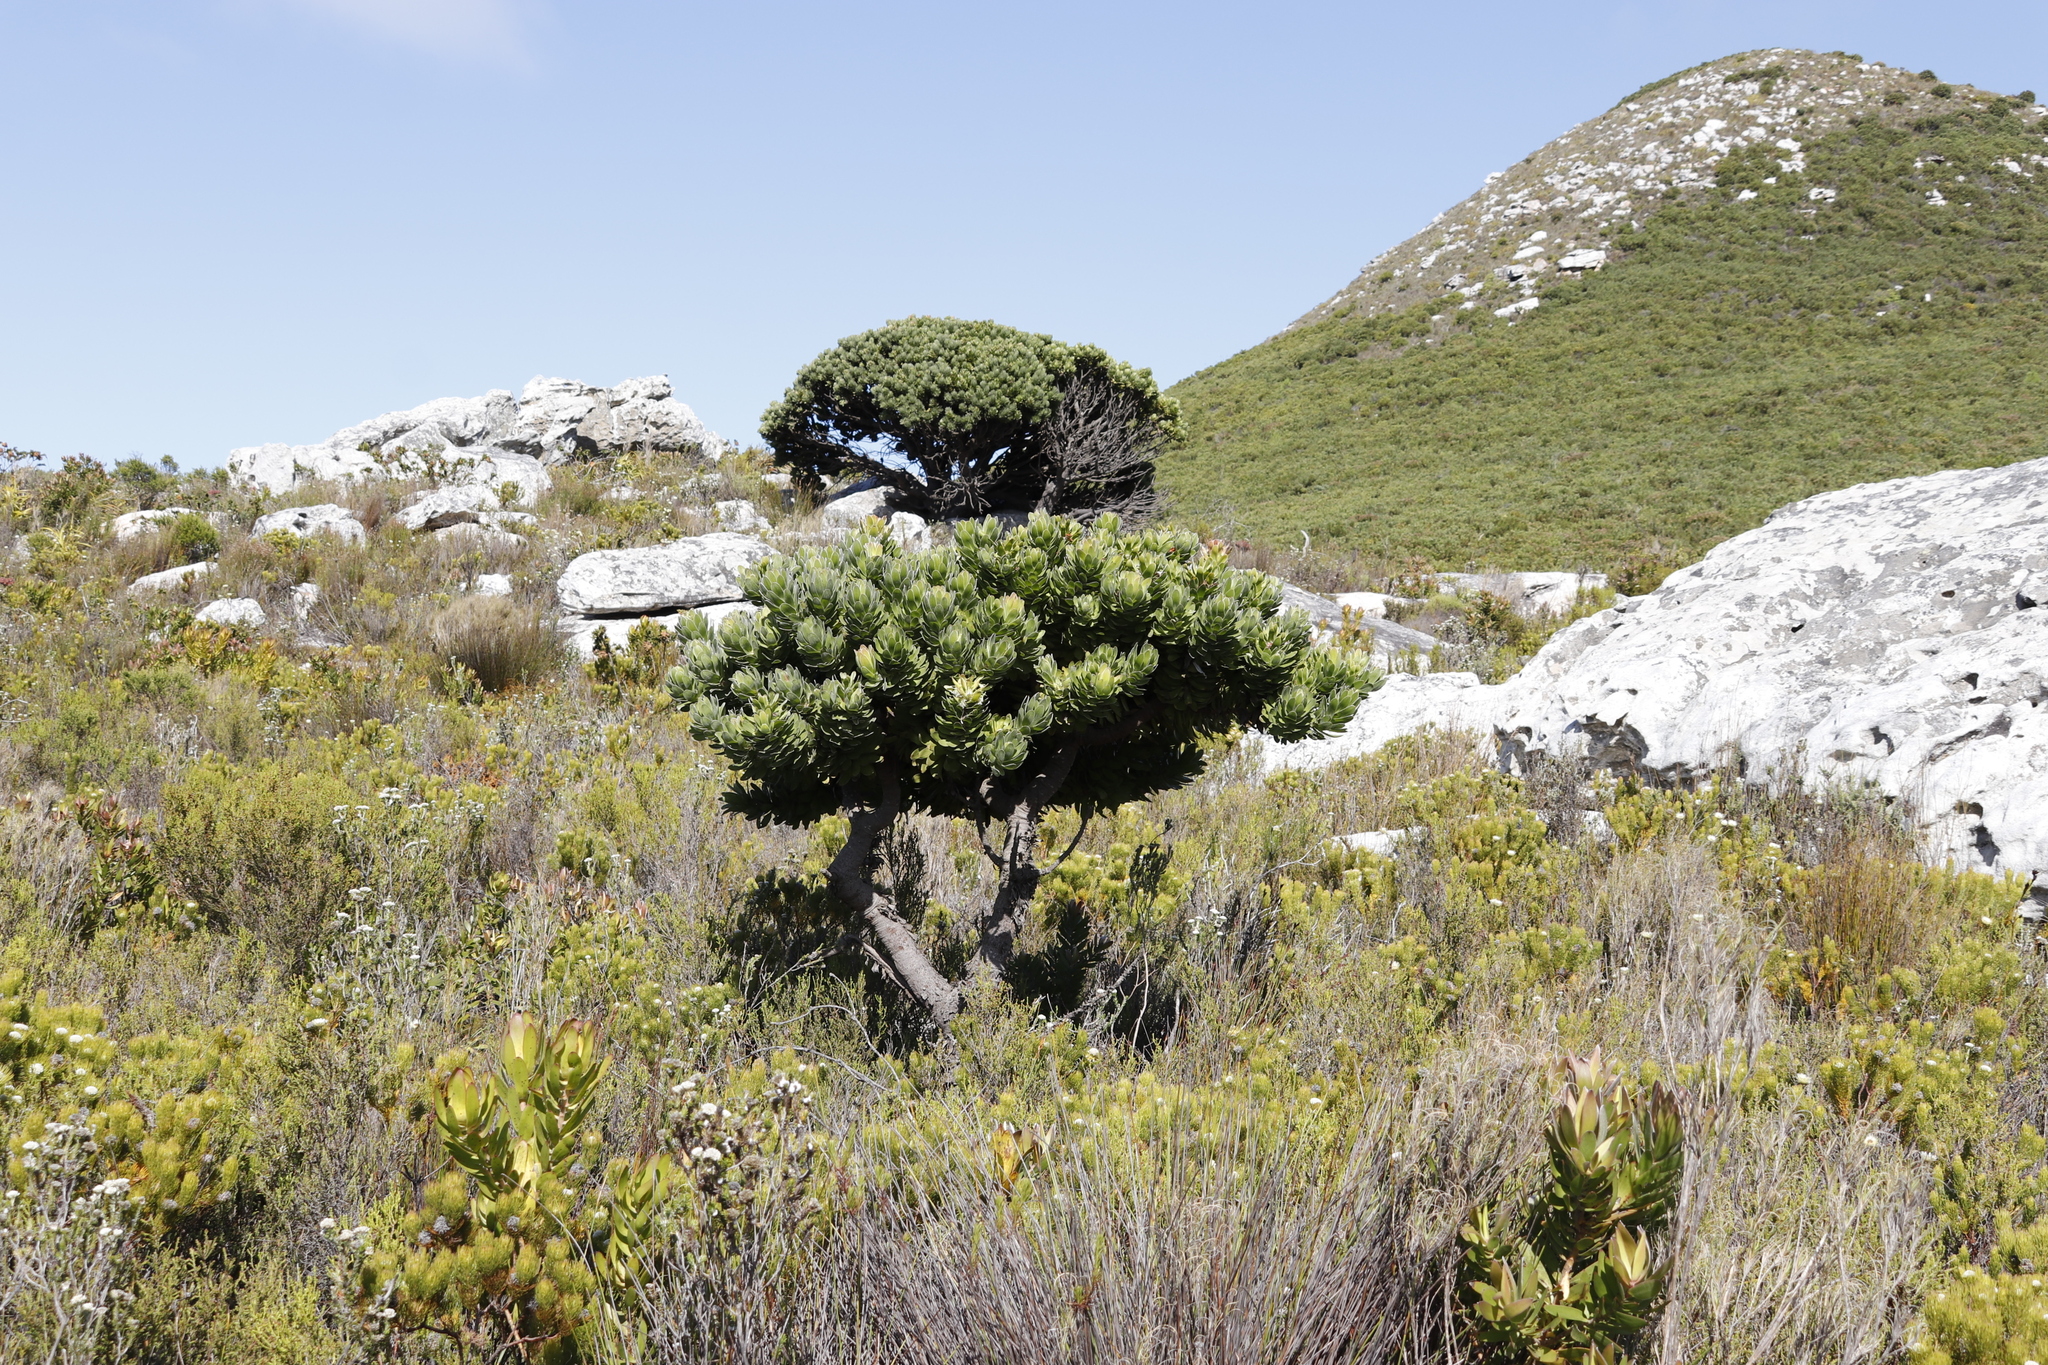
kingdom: Plantae
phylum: Tracheophyta
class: Magnoliopsida
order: Proteales
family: Proteaceae
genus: Mimetes
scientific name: Mimetes fimbriifolius
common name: Fringed bottlebrush
